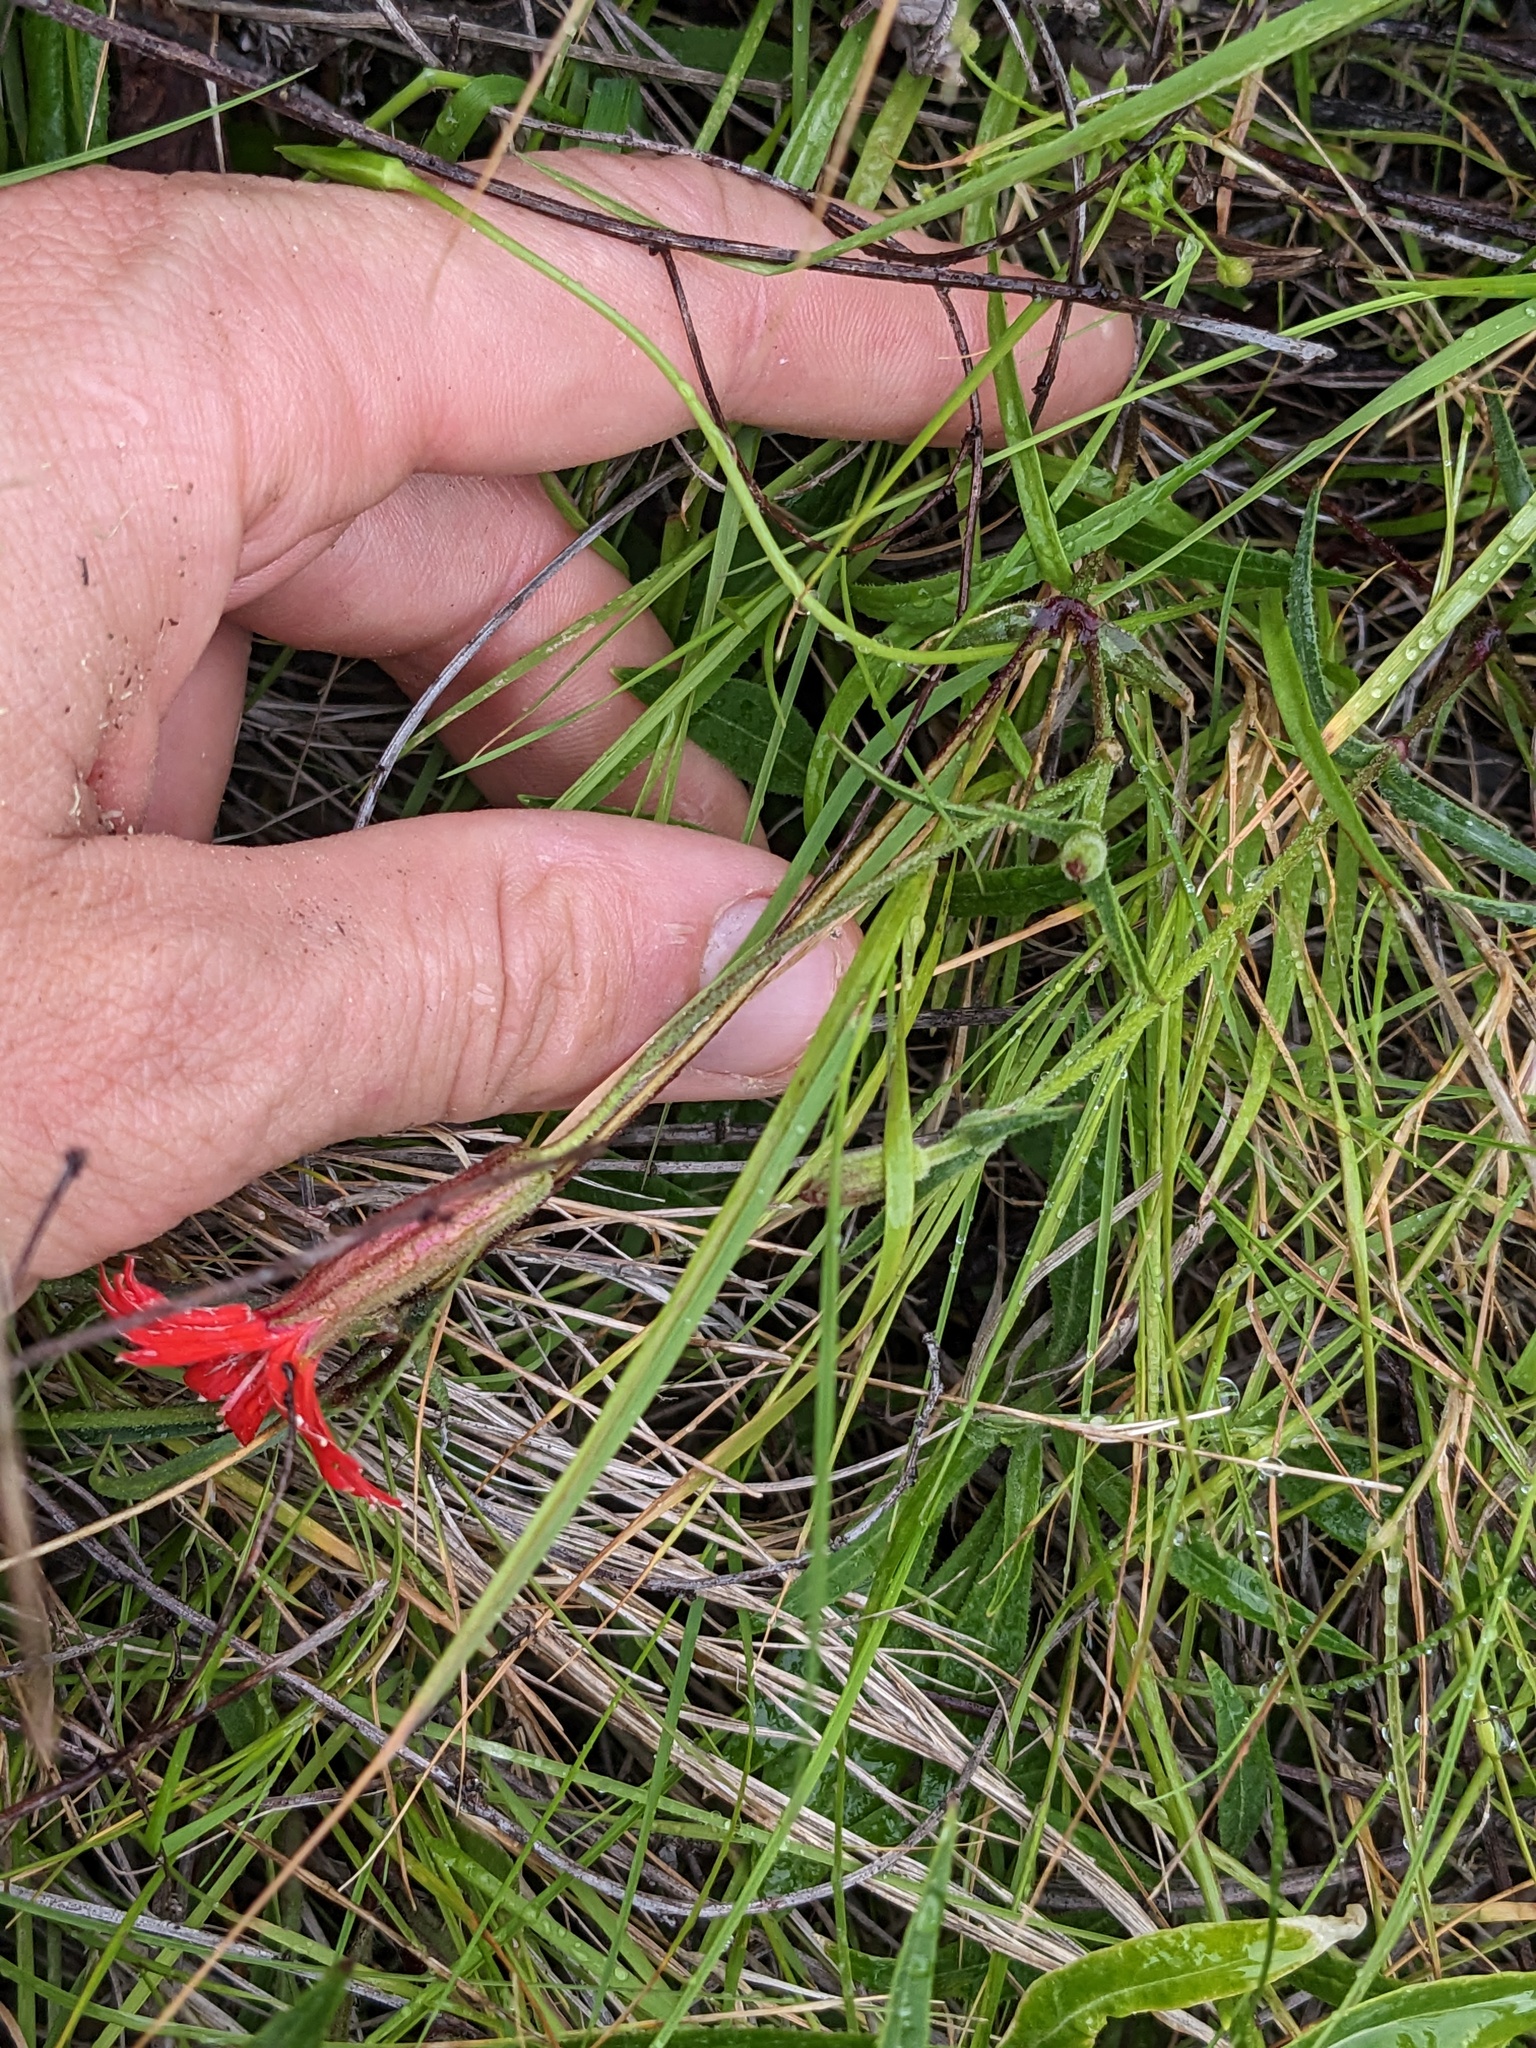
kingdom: Plantae
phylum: Tracheophyta
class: Magnoliopsida
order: Caryophyllales
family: Caryophyllaceae
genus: Silene
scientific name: Silene laciniata
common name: Indian-pink
